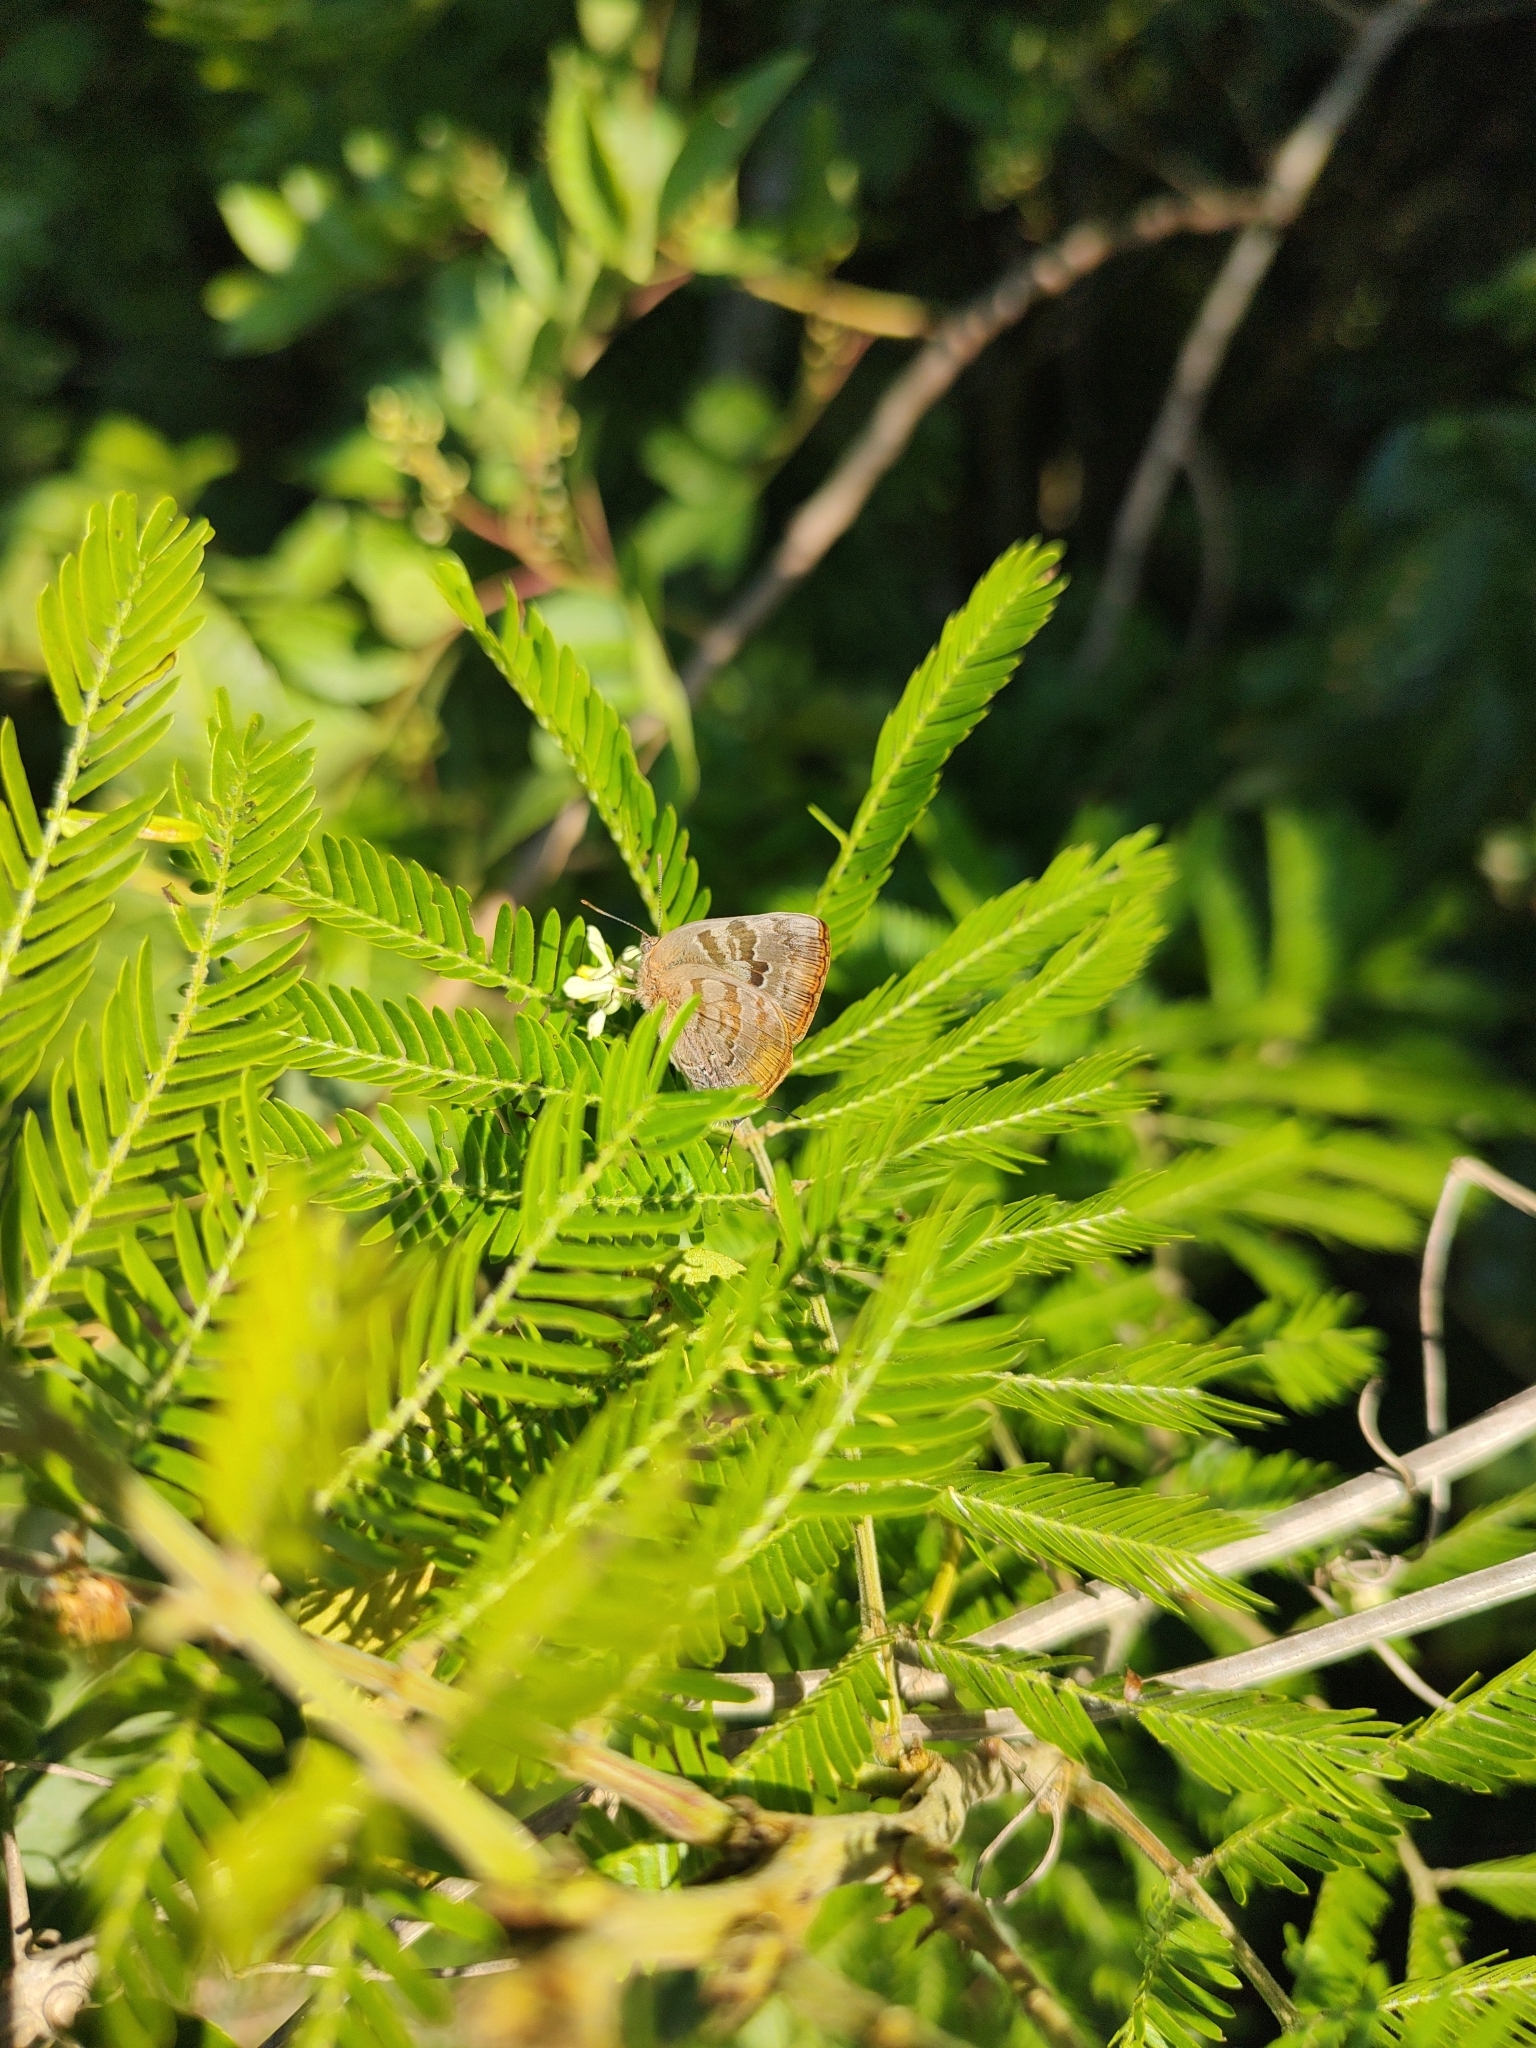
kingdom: Animalia
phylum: Arthropoda
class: Insecta
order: Lepidoptera
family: Lycaenidae
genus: Rekoa
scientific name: Rekoa palegon
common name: Gold-bordered hairstreak
